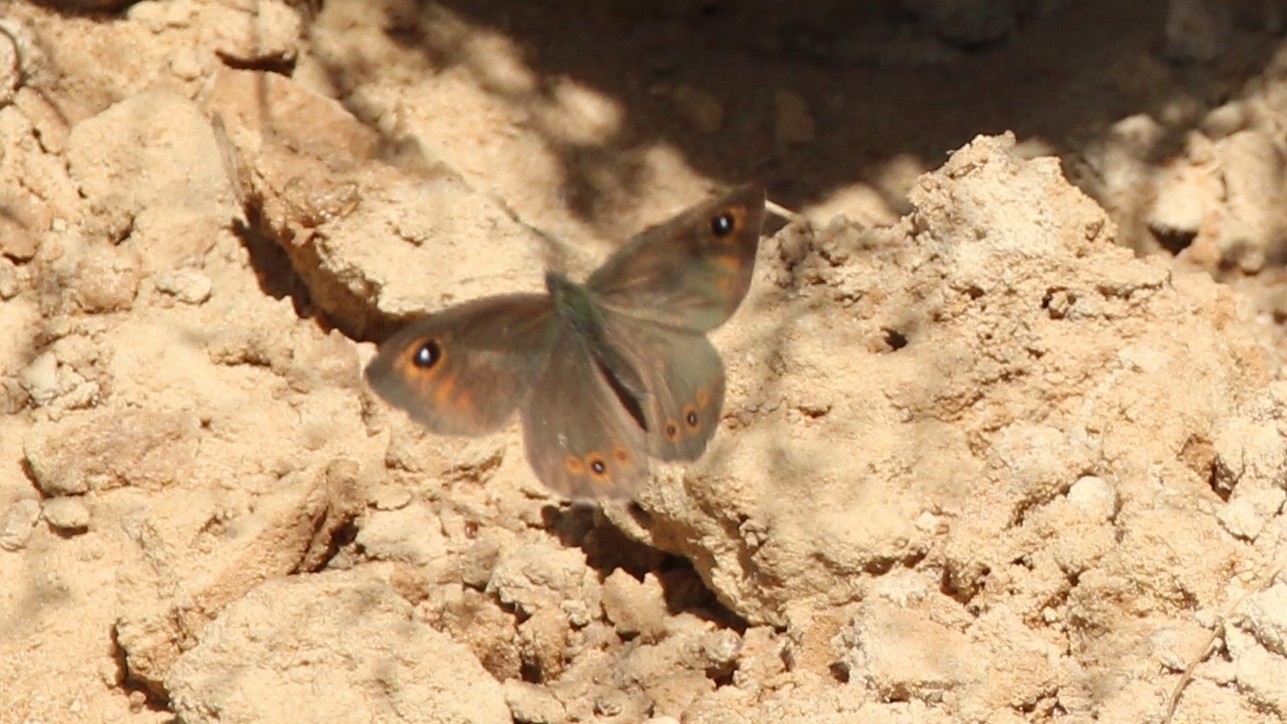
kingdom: Animalia
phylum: Arthropoda
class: Insecta
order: Lepidoptera
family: Nymphalidae
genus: Pararge
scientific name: Pararge Lasiommata maera
